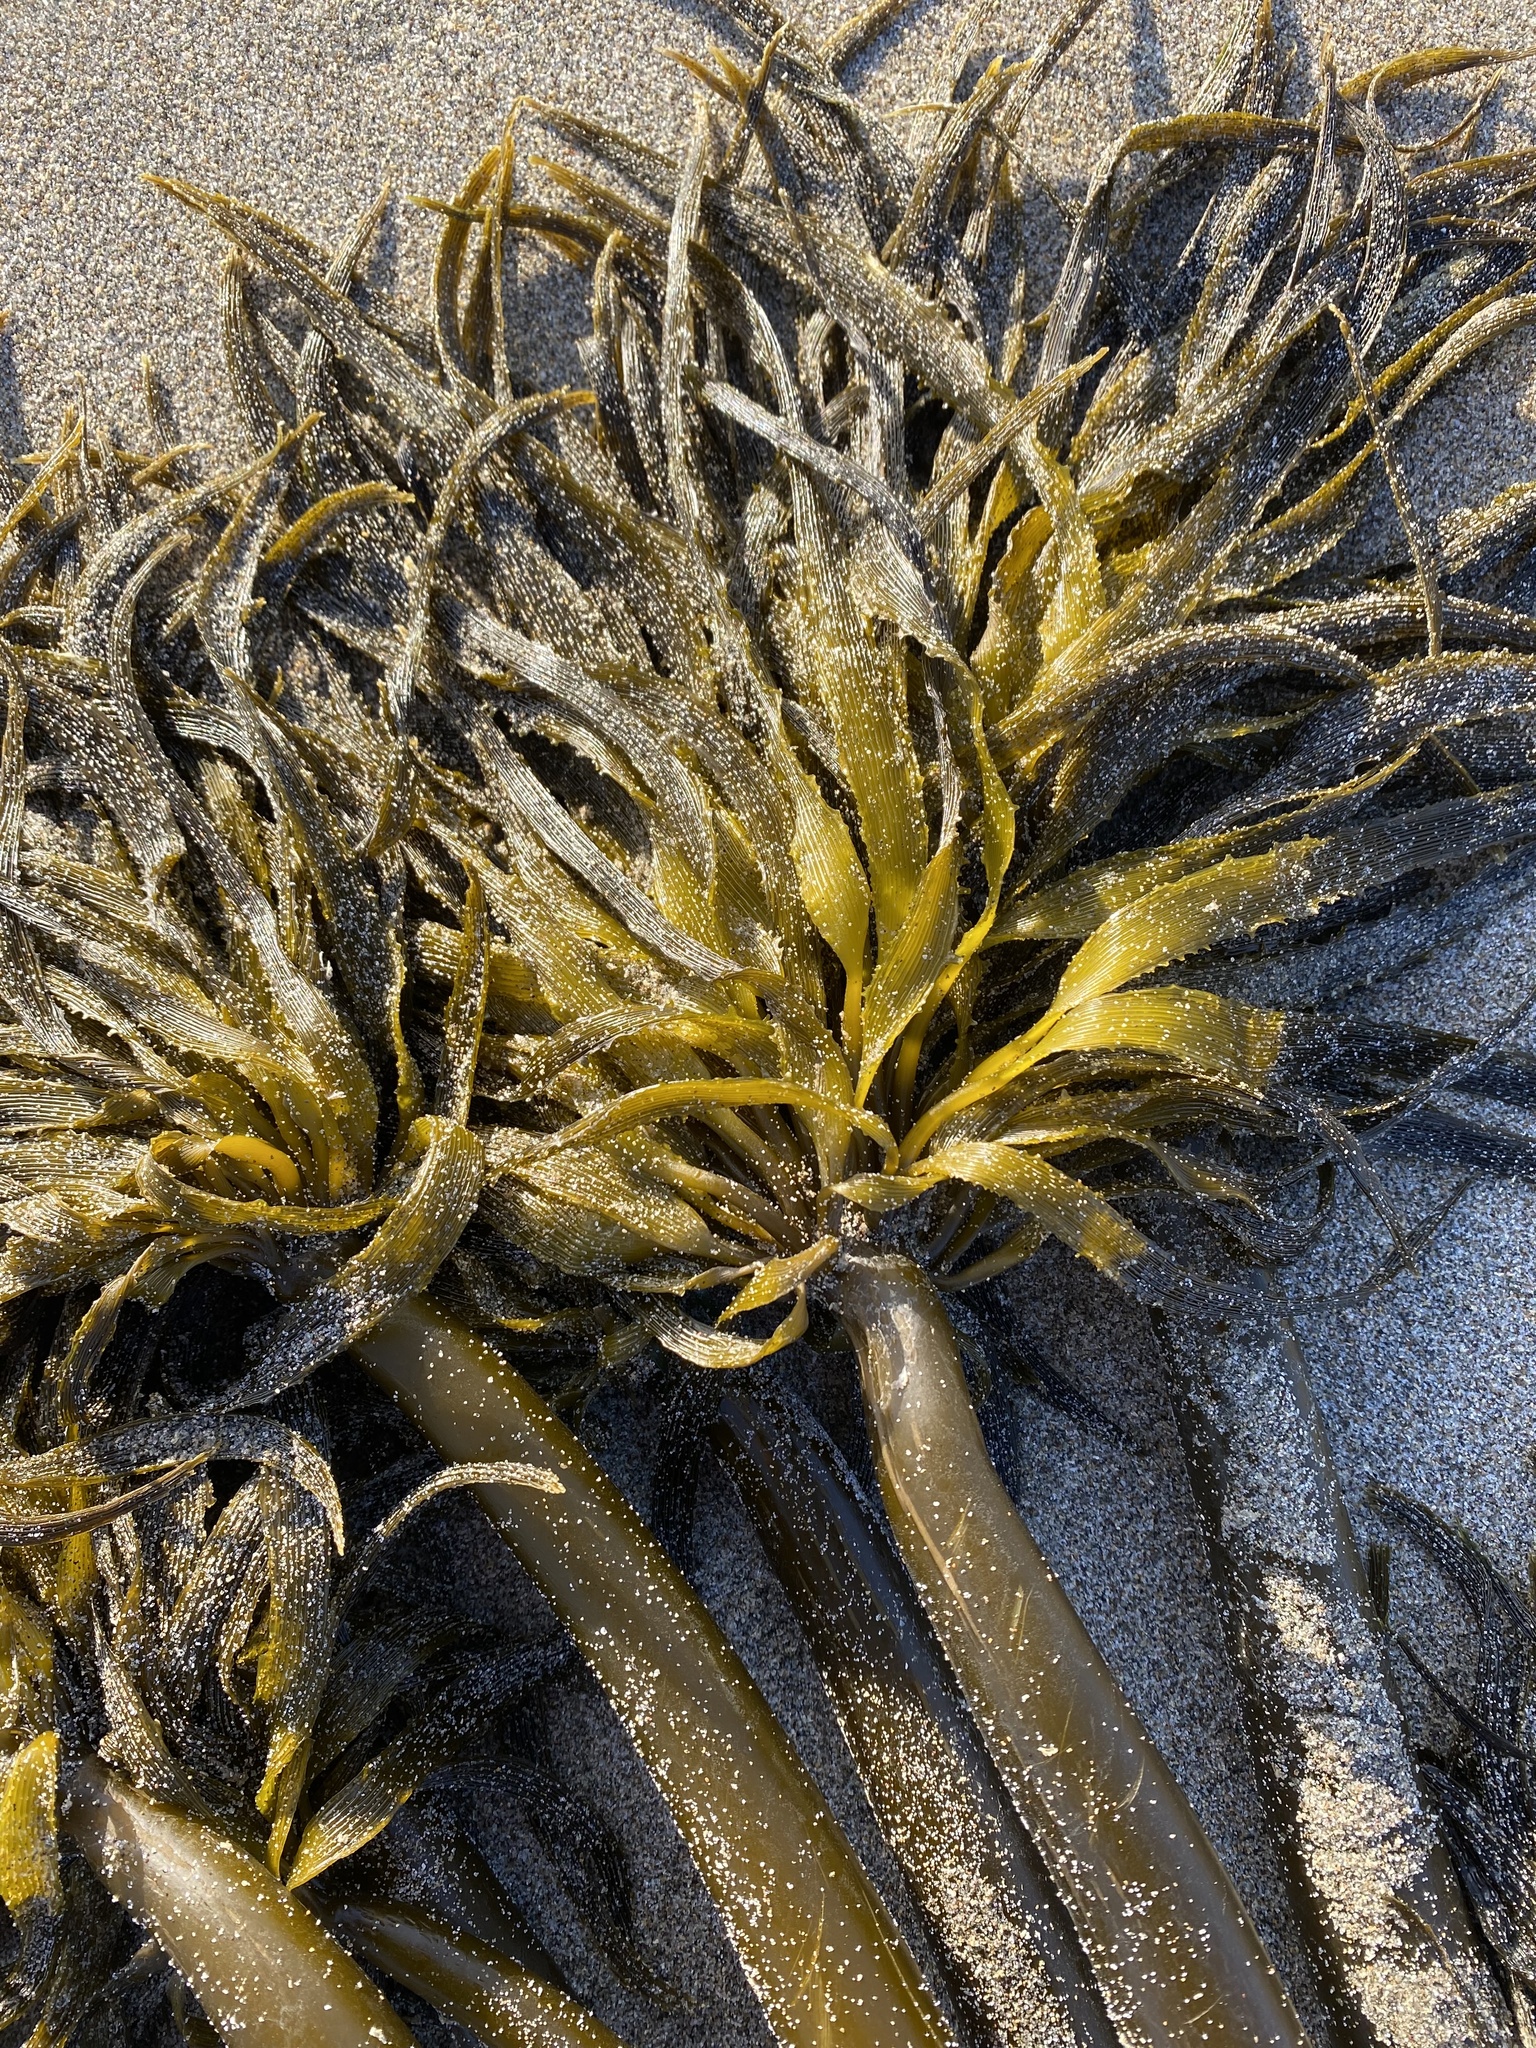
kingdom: Chromista
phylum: Ochrophyta
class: Phaeophyceae
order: Laminariales
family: Laminariaceae
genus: Postelsia
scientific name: Postelsia palmiformis
